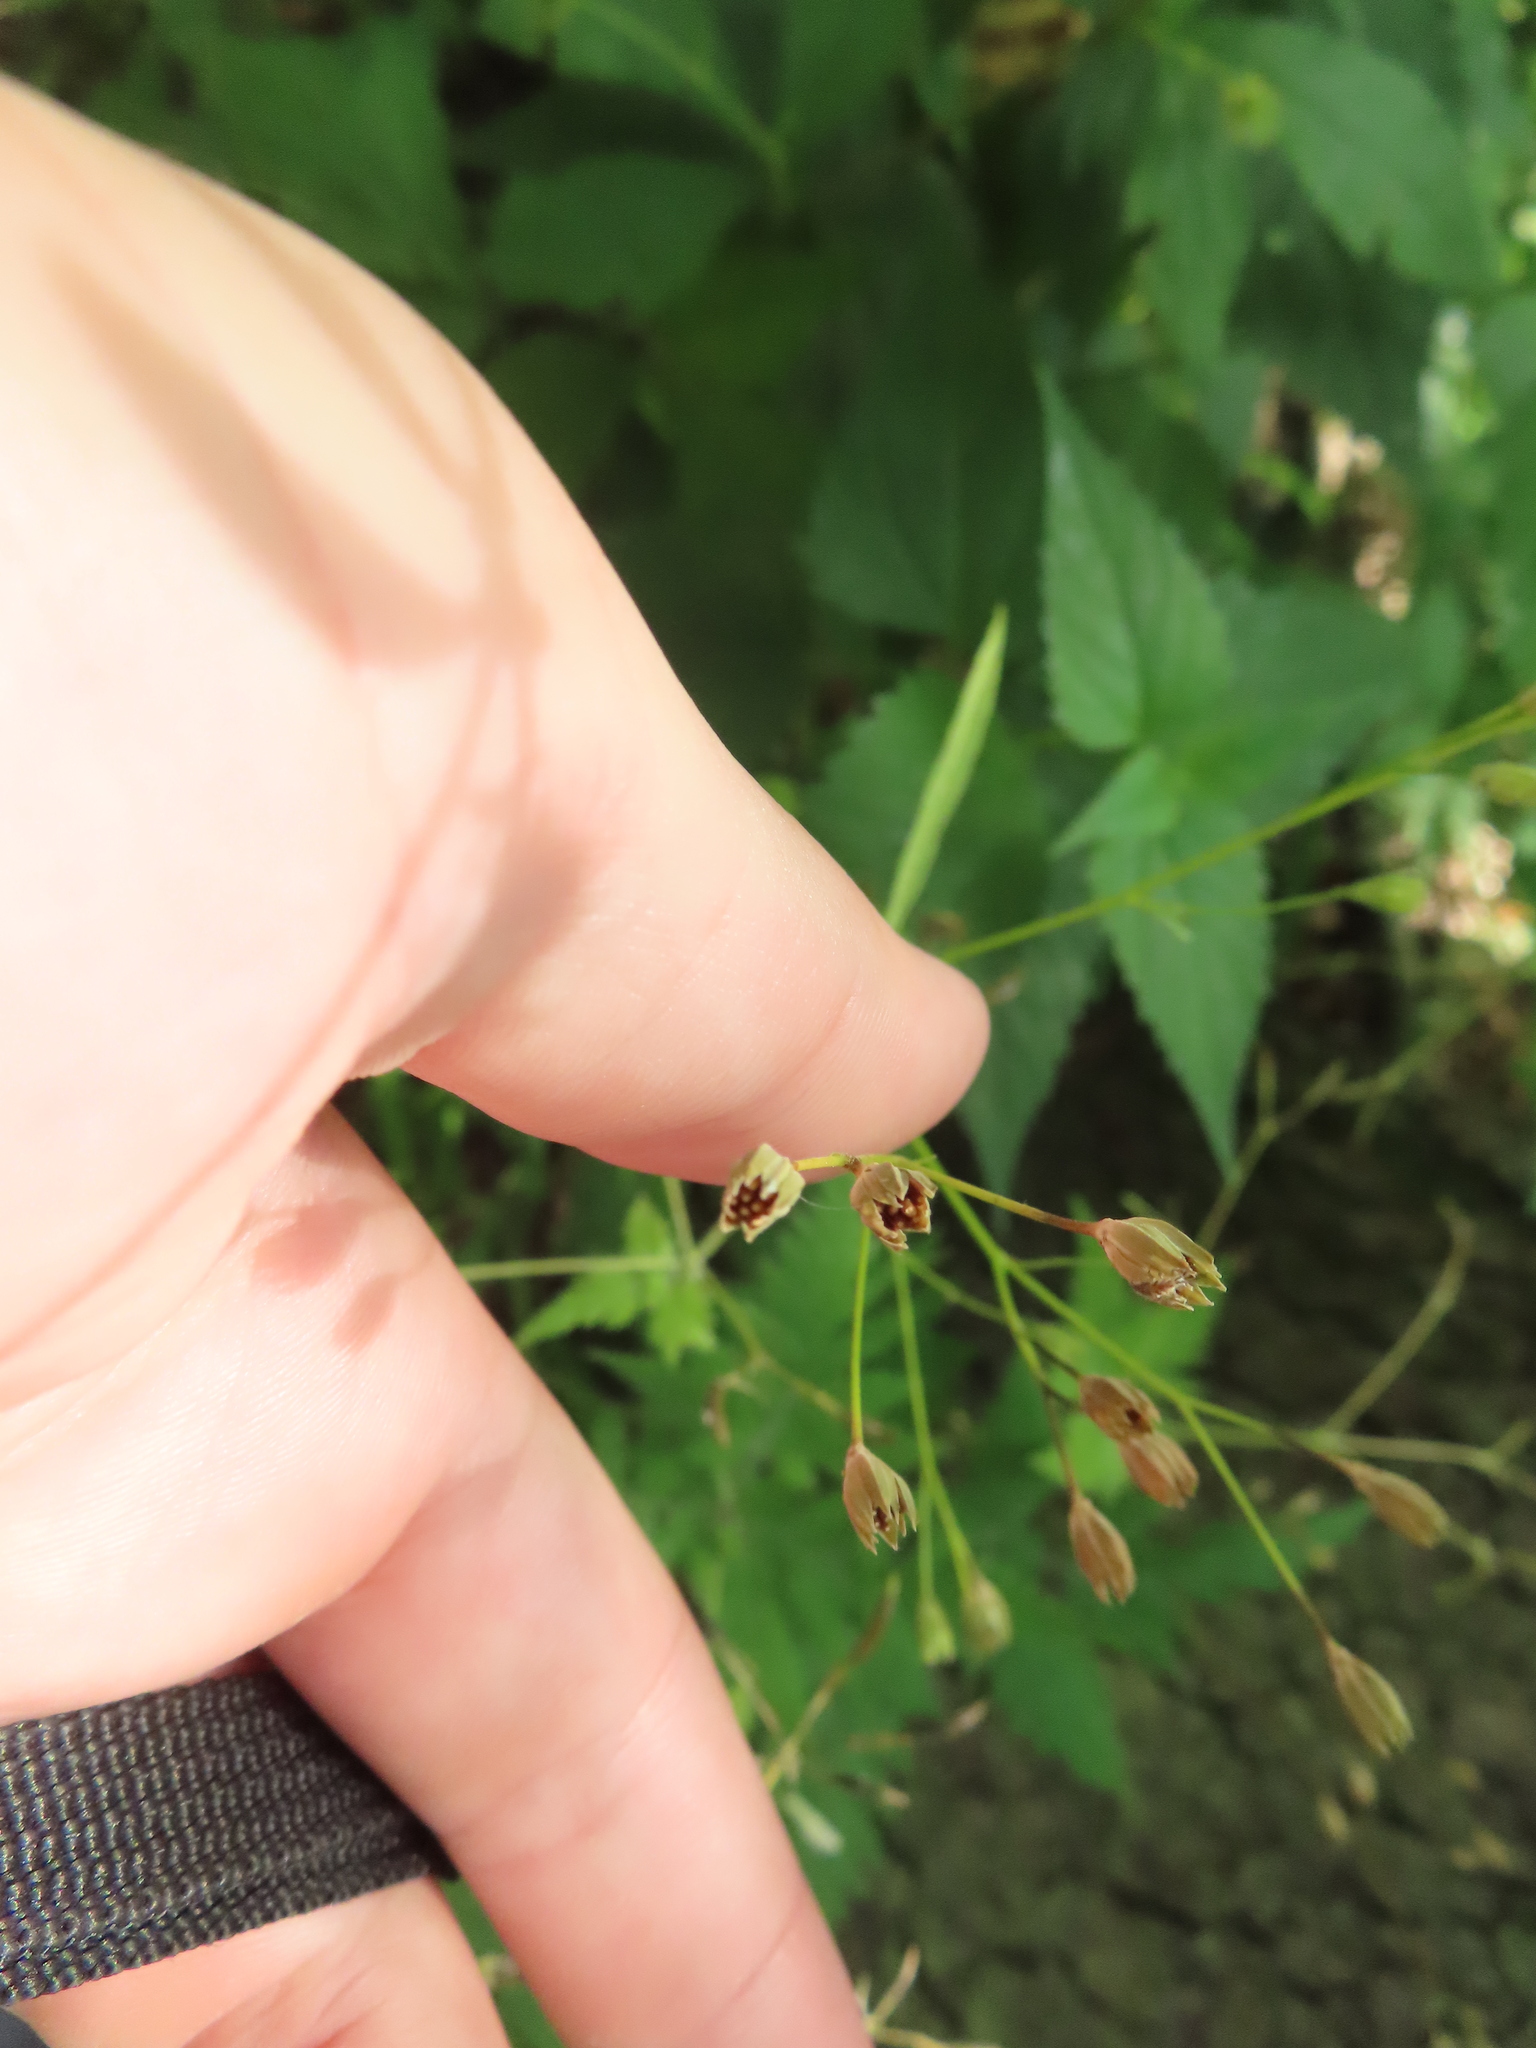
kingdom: Plantae
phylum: Tracheophyta
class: Magnoliopsida
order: Asterales
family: Asteraceae
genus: Lapsana
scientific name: Lapsana communis
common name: Nipplewort
